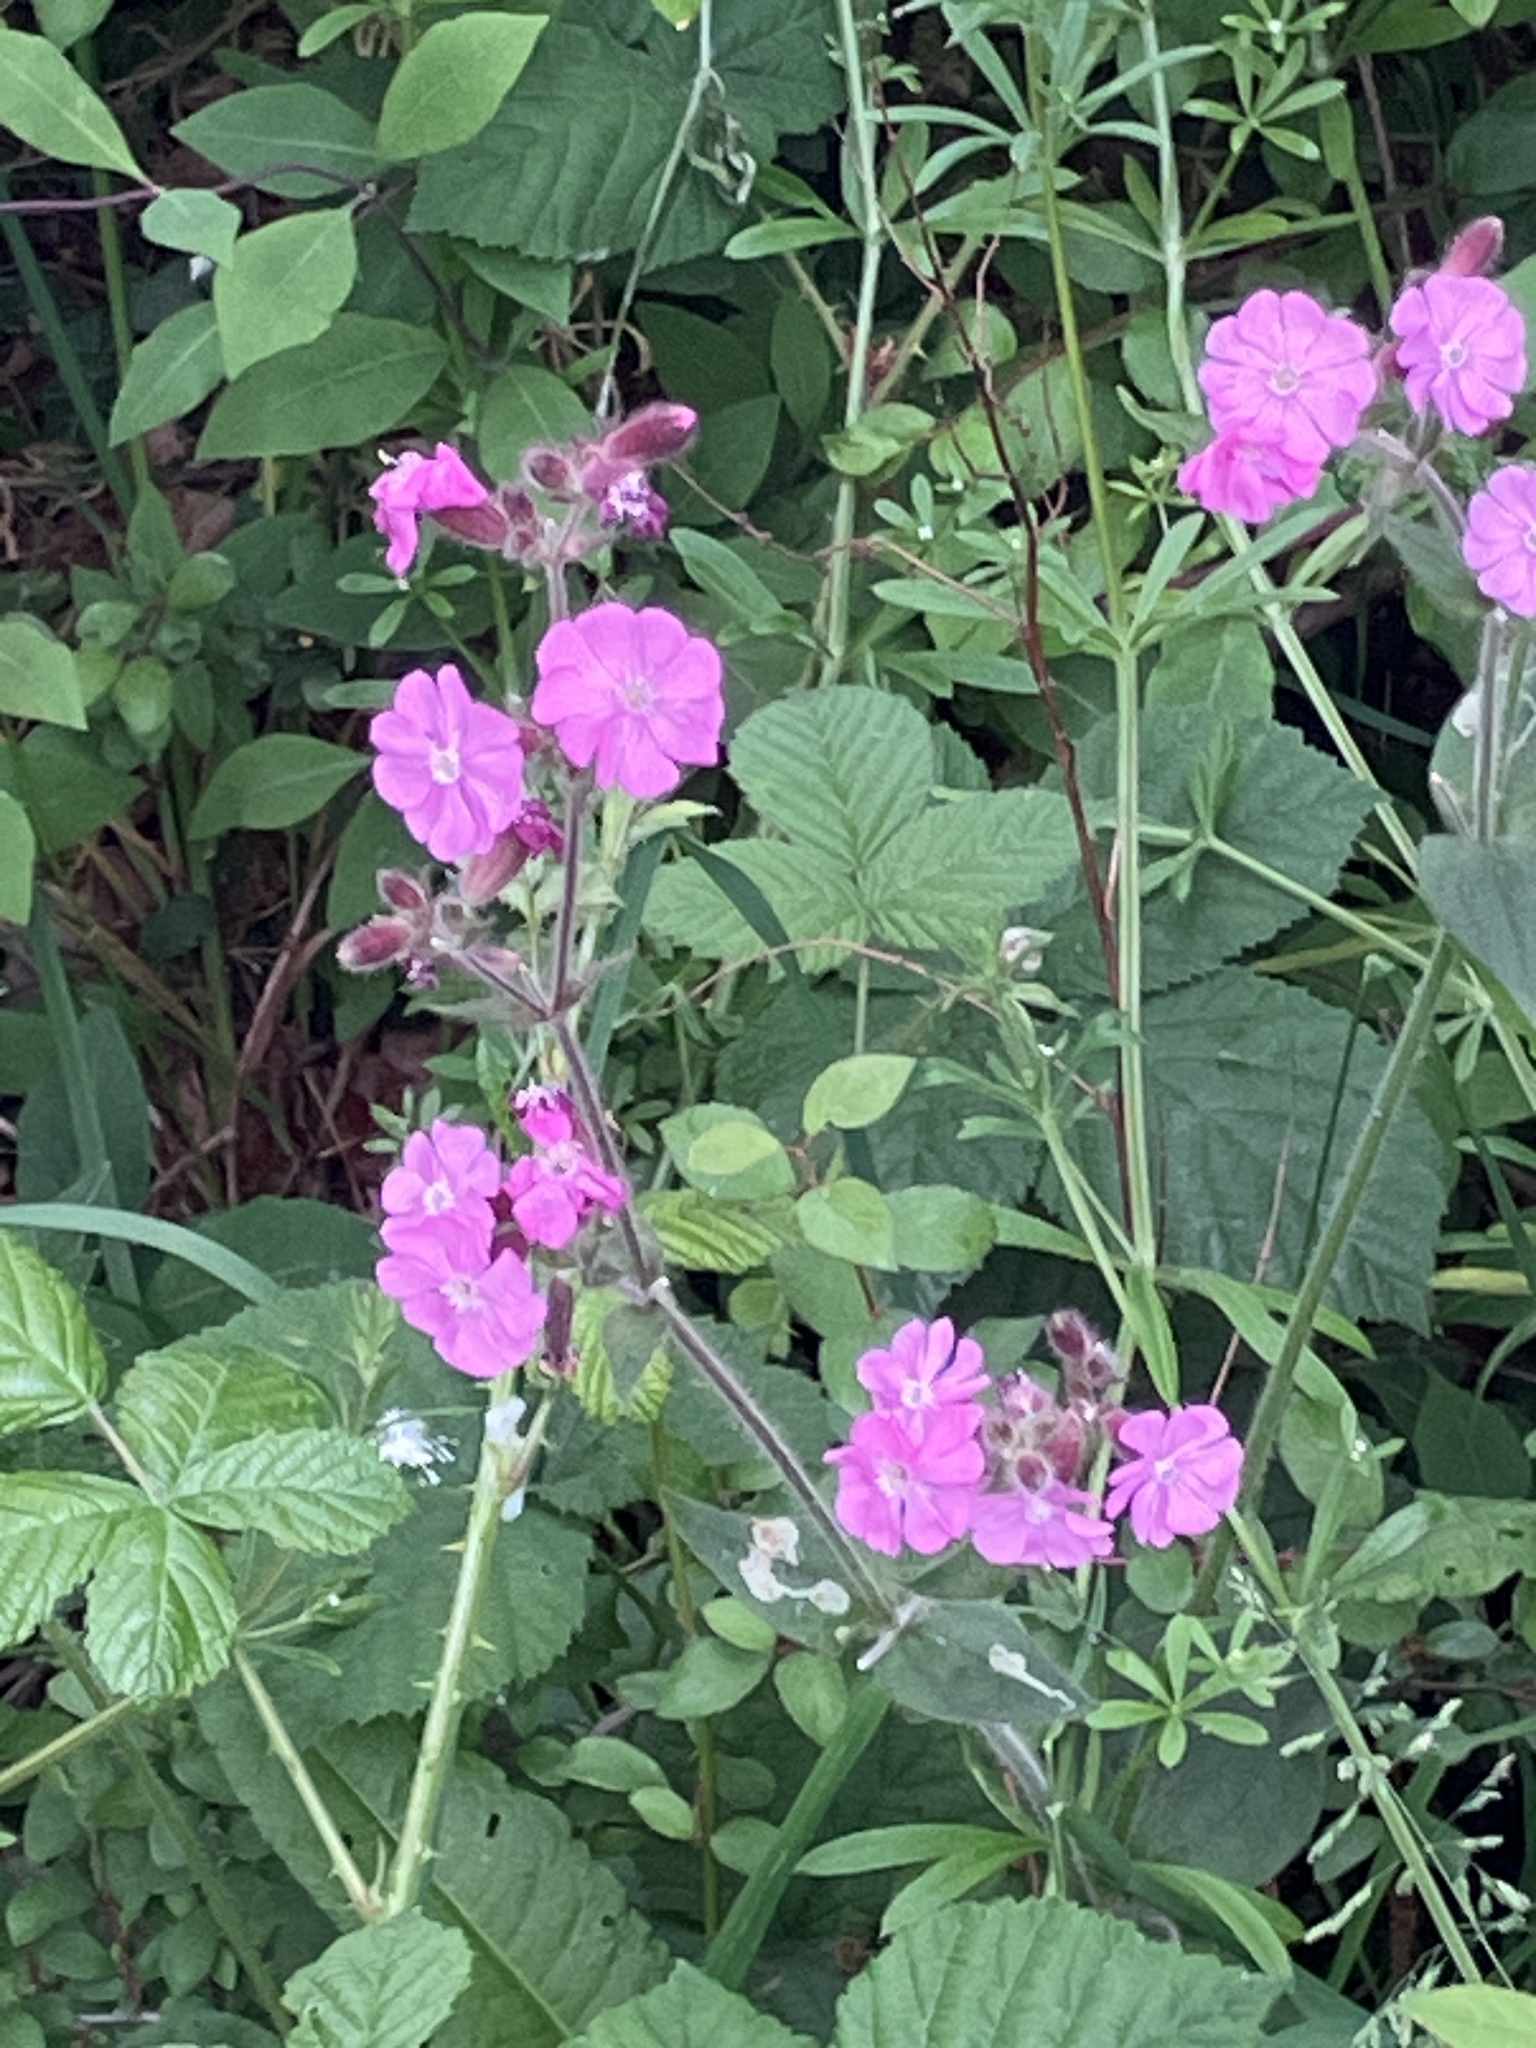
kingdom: Plantae
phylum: Tracheophyta
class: Magnoliopsida
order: Caryophyllales
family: Caryophyllaceae
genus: Silene
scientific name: Silene dioica
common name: Red campion
